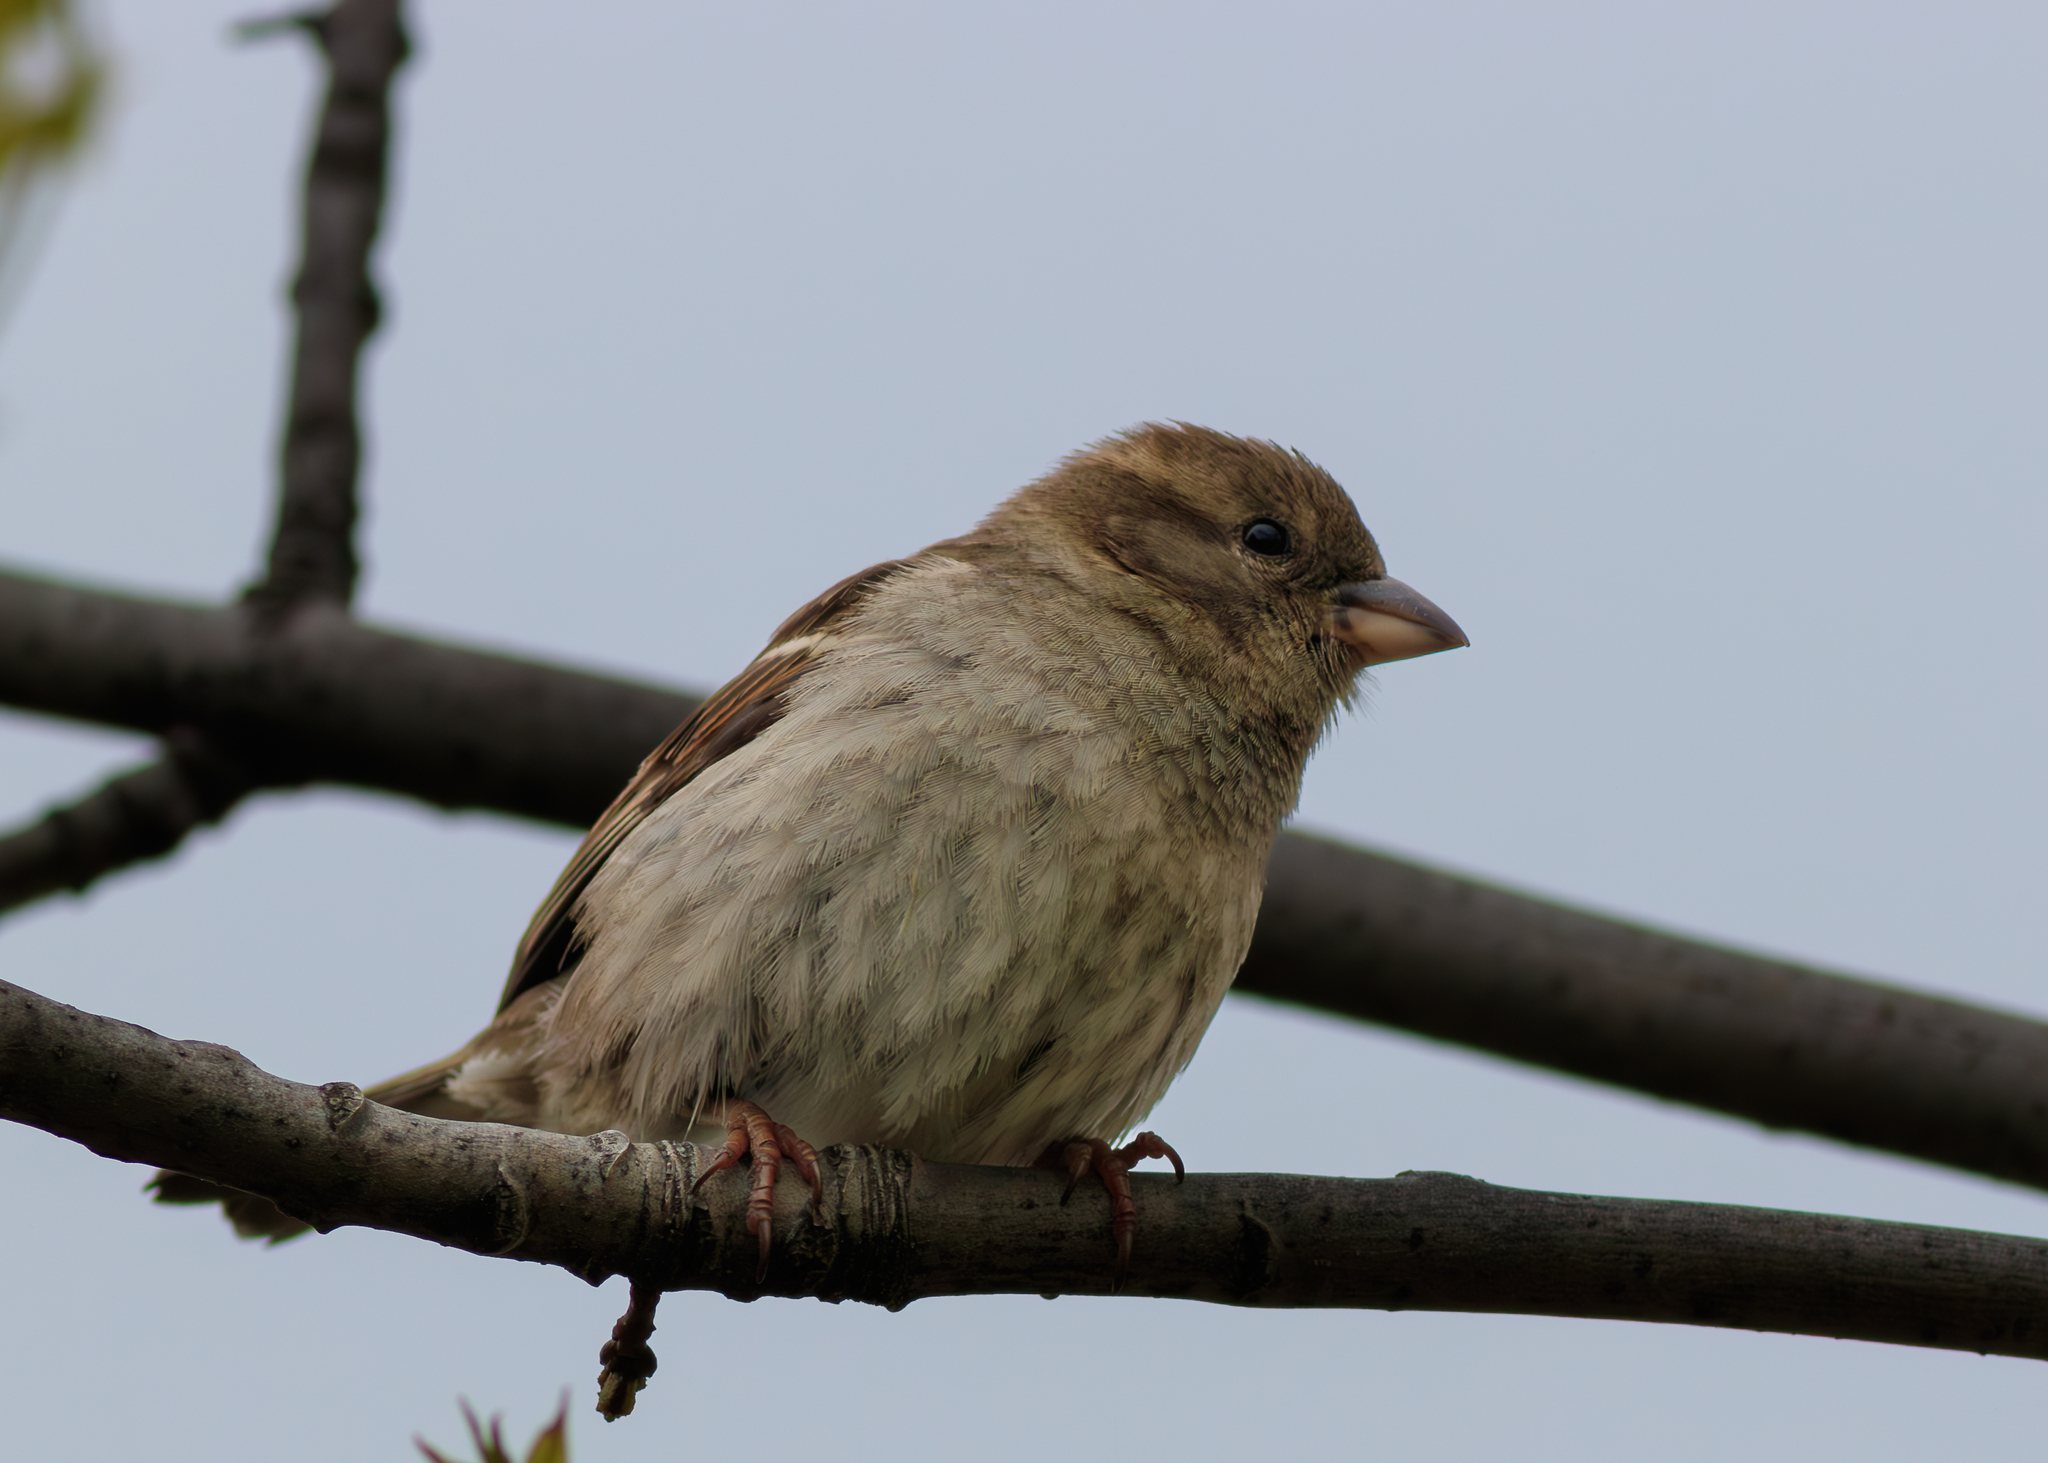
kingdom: Animalia
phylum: Chordata
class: Aves
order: Passeriformes
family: Passeridae
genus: Passer
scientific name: Passer domesticus
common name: House sparrow
